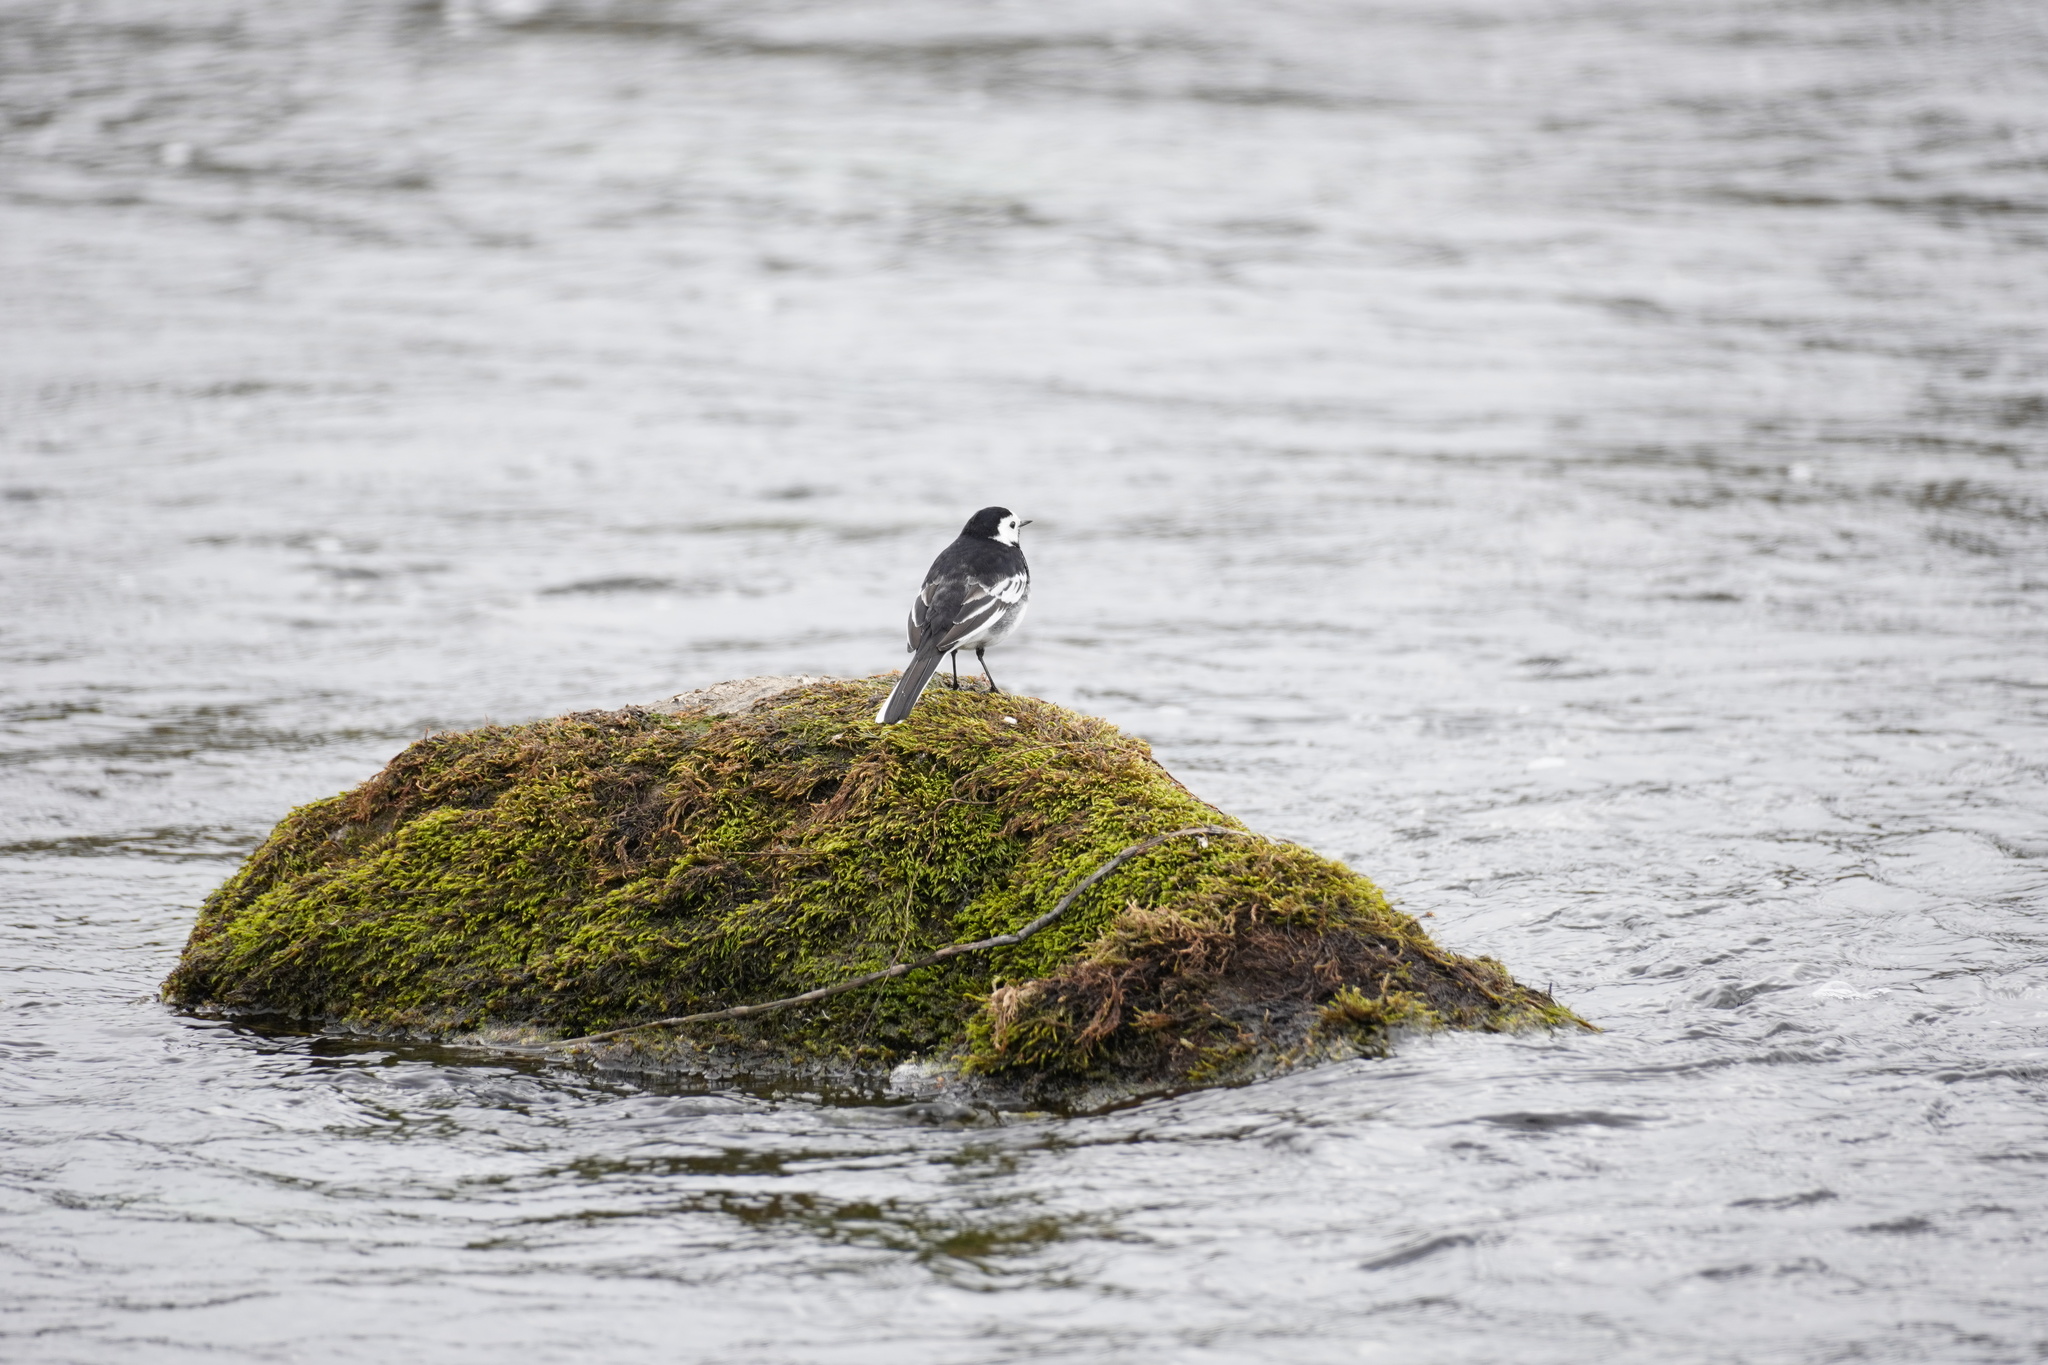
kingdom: Animalia
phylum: Chordata
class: Aves
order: Passeriformes
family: Motacillidae
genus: Motacilla
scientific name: Motacilla alba
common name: White wagtail
